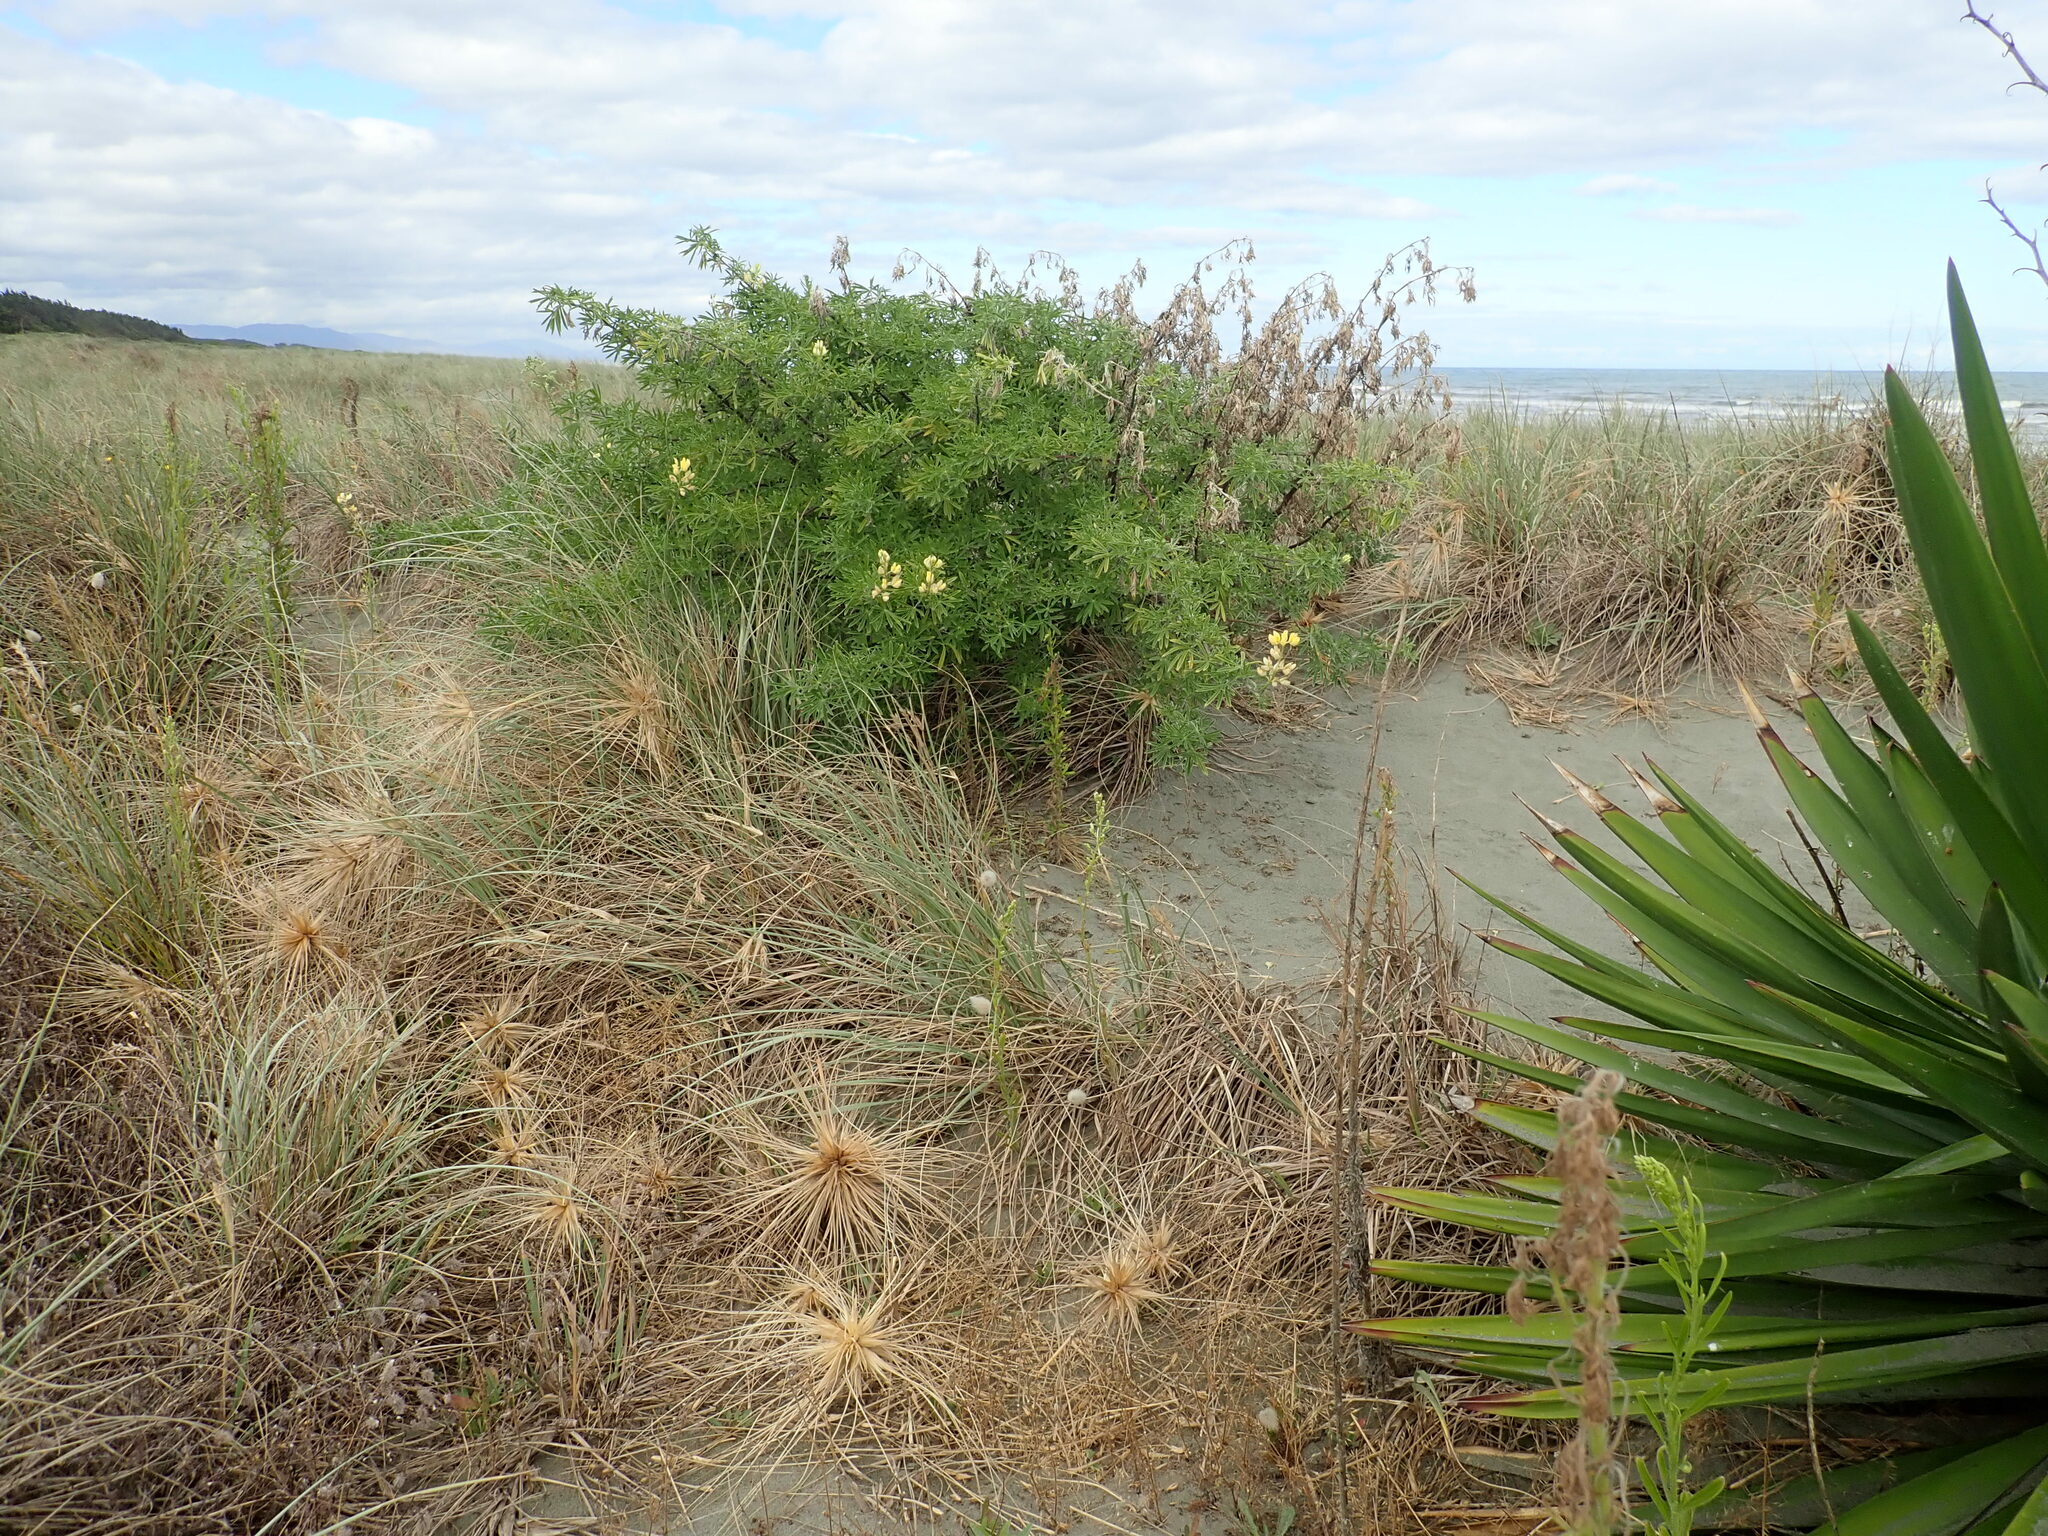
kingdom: Plantae
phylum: Tracheophyta
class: Magnoliopsida
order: Fabales
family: Fabaceae
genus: Lupinus
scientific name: Lupinus arboreus
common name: Yellow bush lupine
